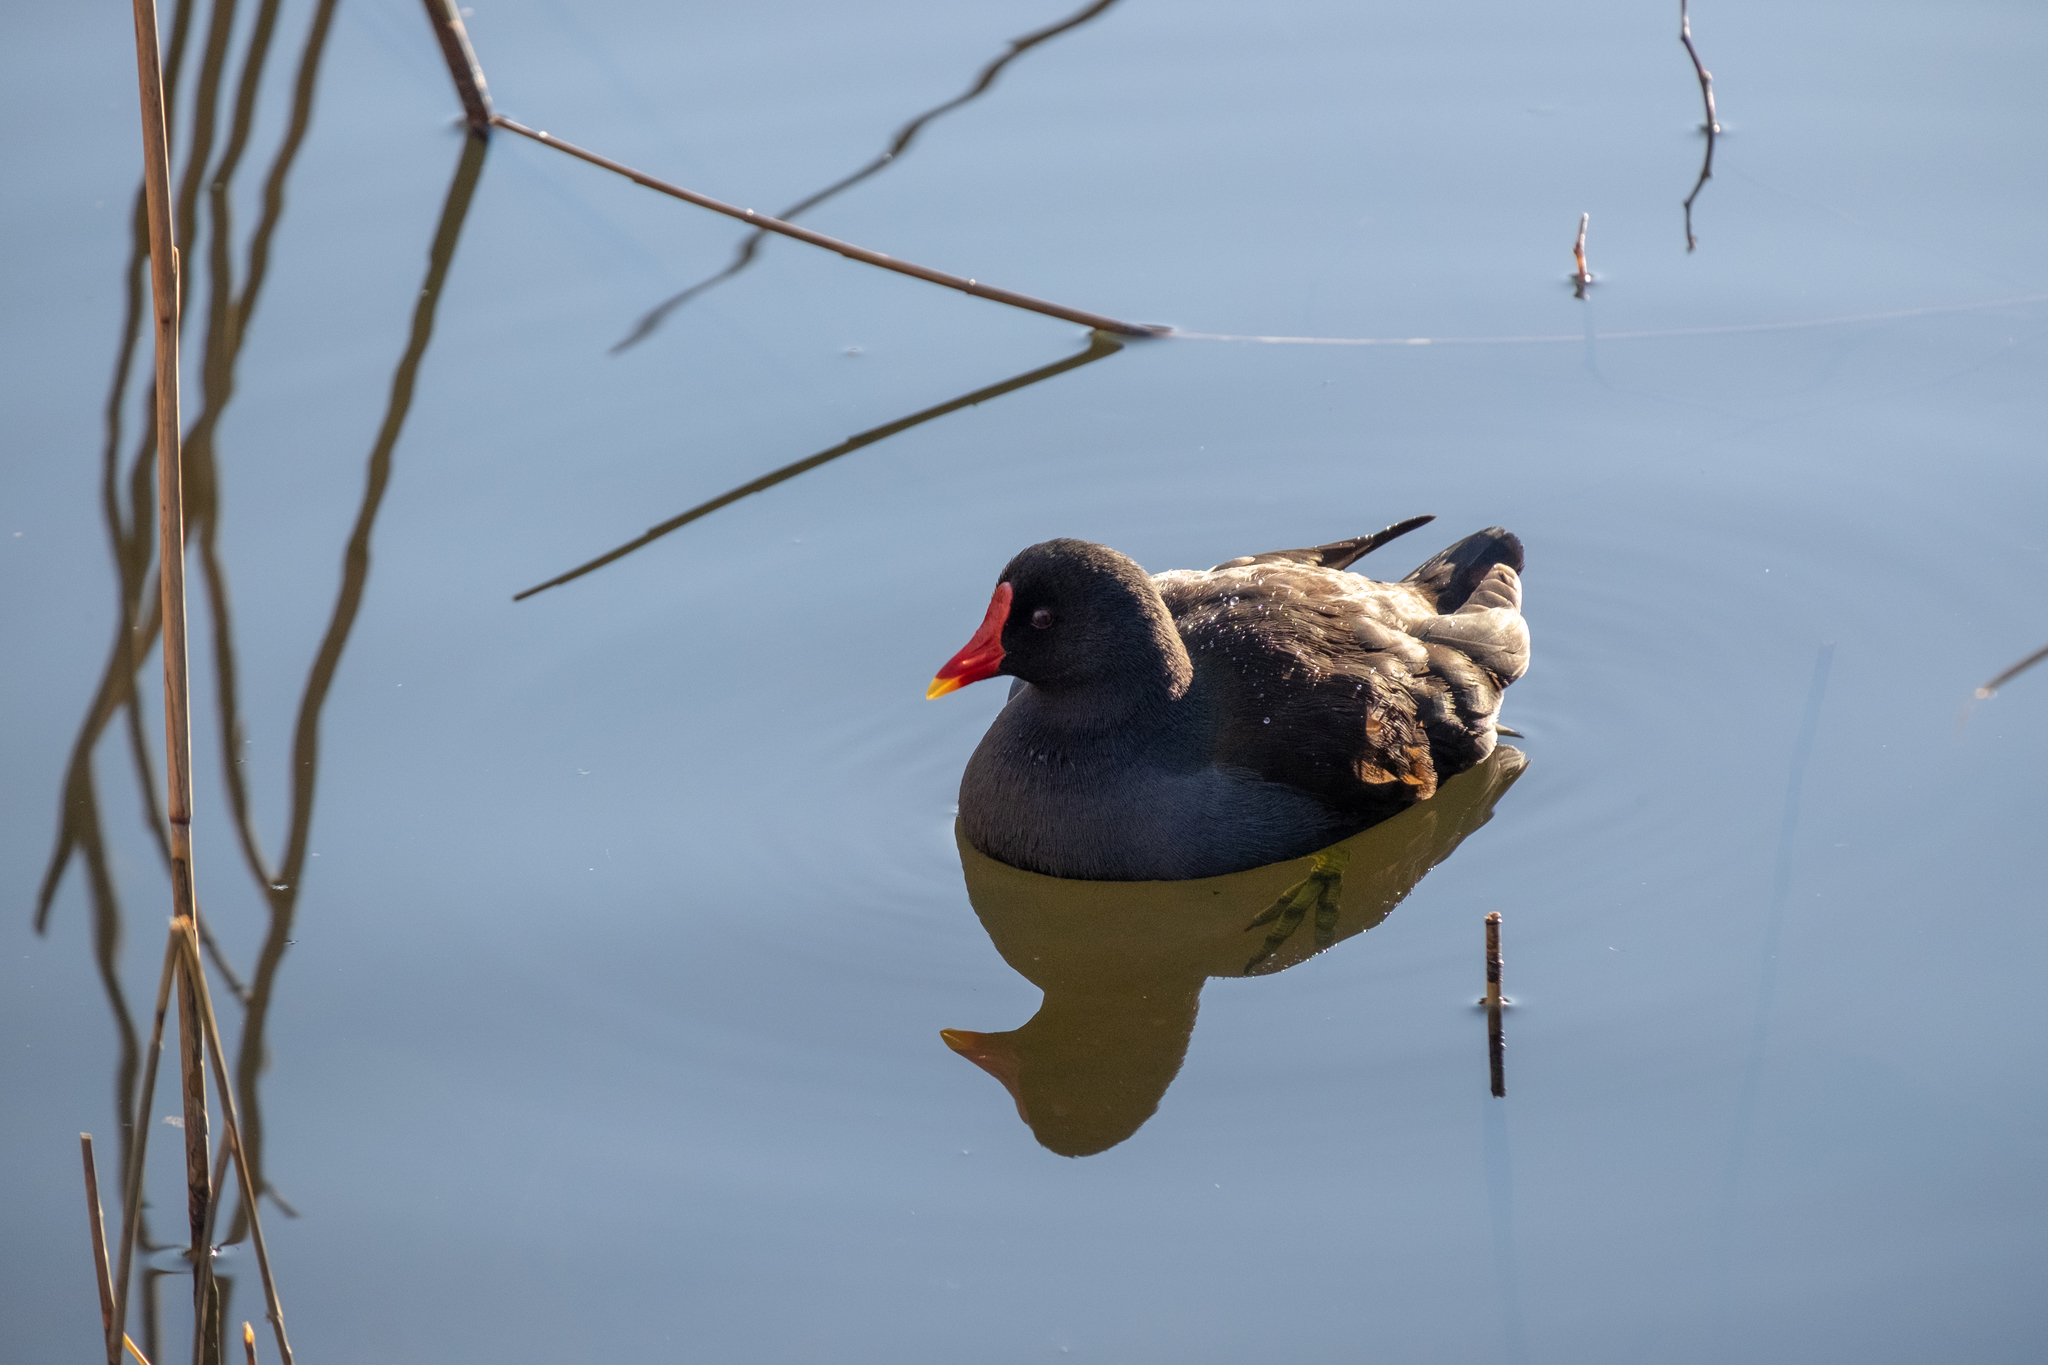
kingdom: Animalia
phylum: Chordata
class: Aves
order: Gruiformes
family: Rallidae
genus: Gallinula
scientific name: Gallinula chloropus
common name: Common moorhen
